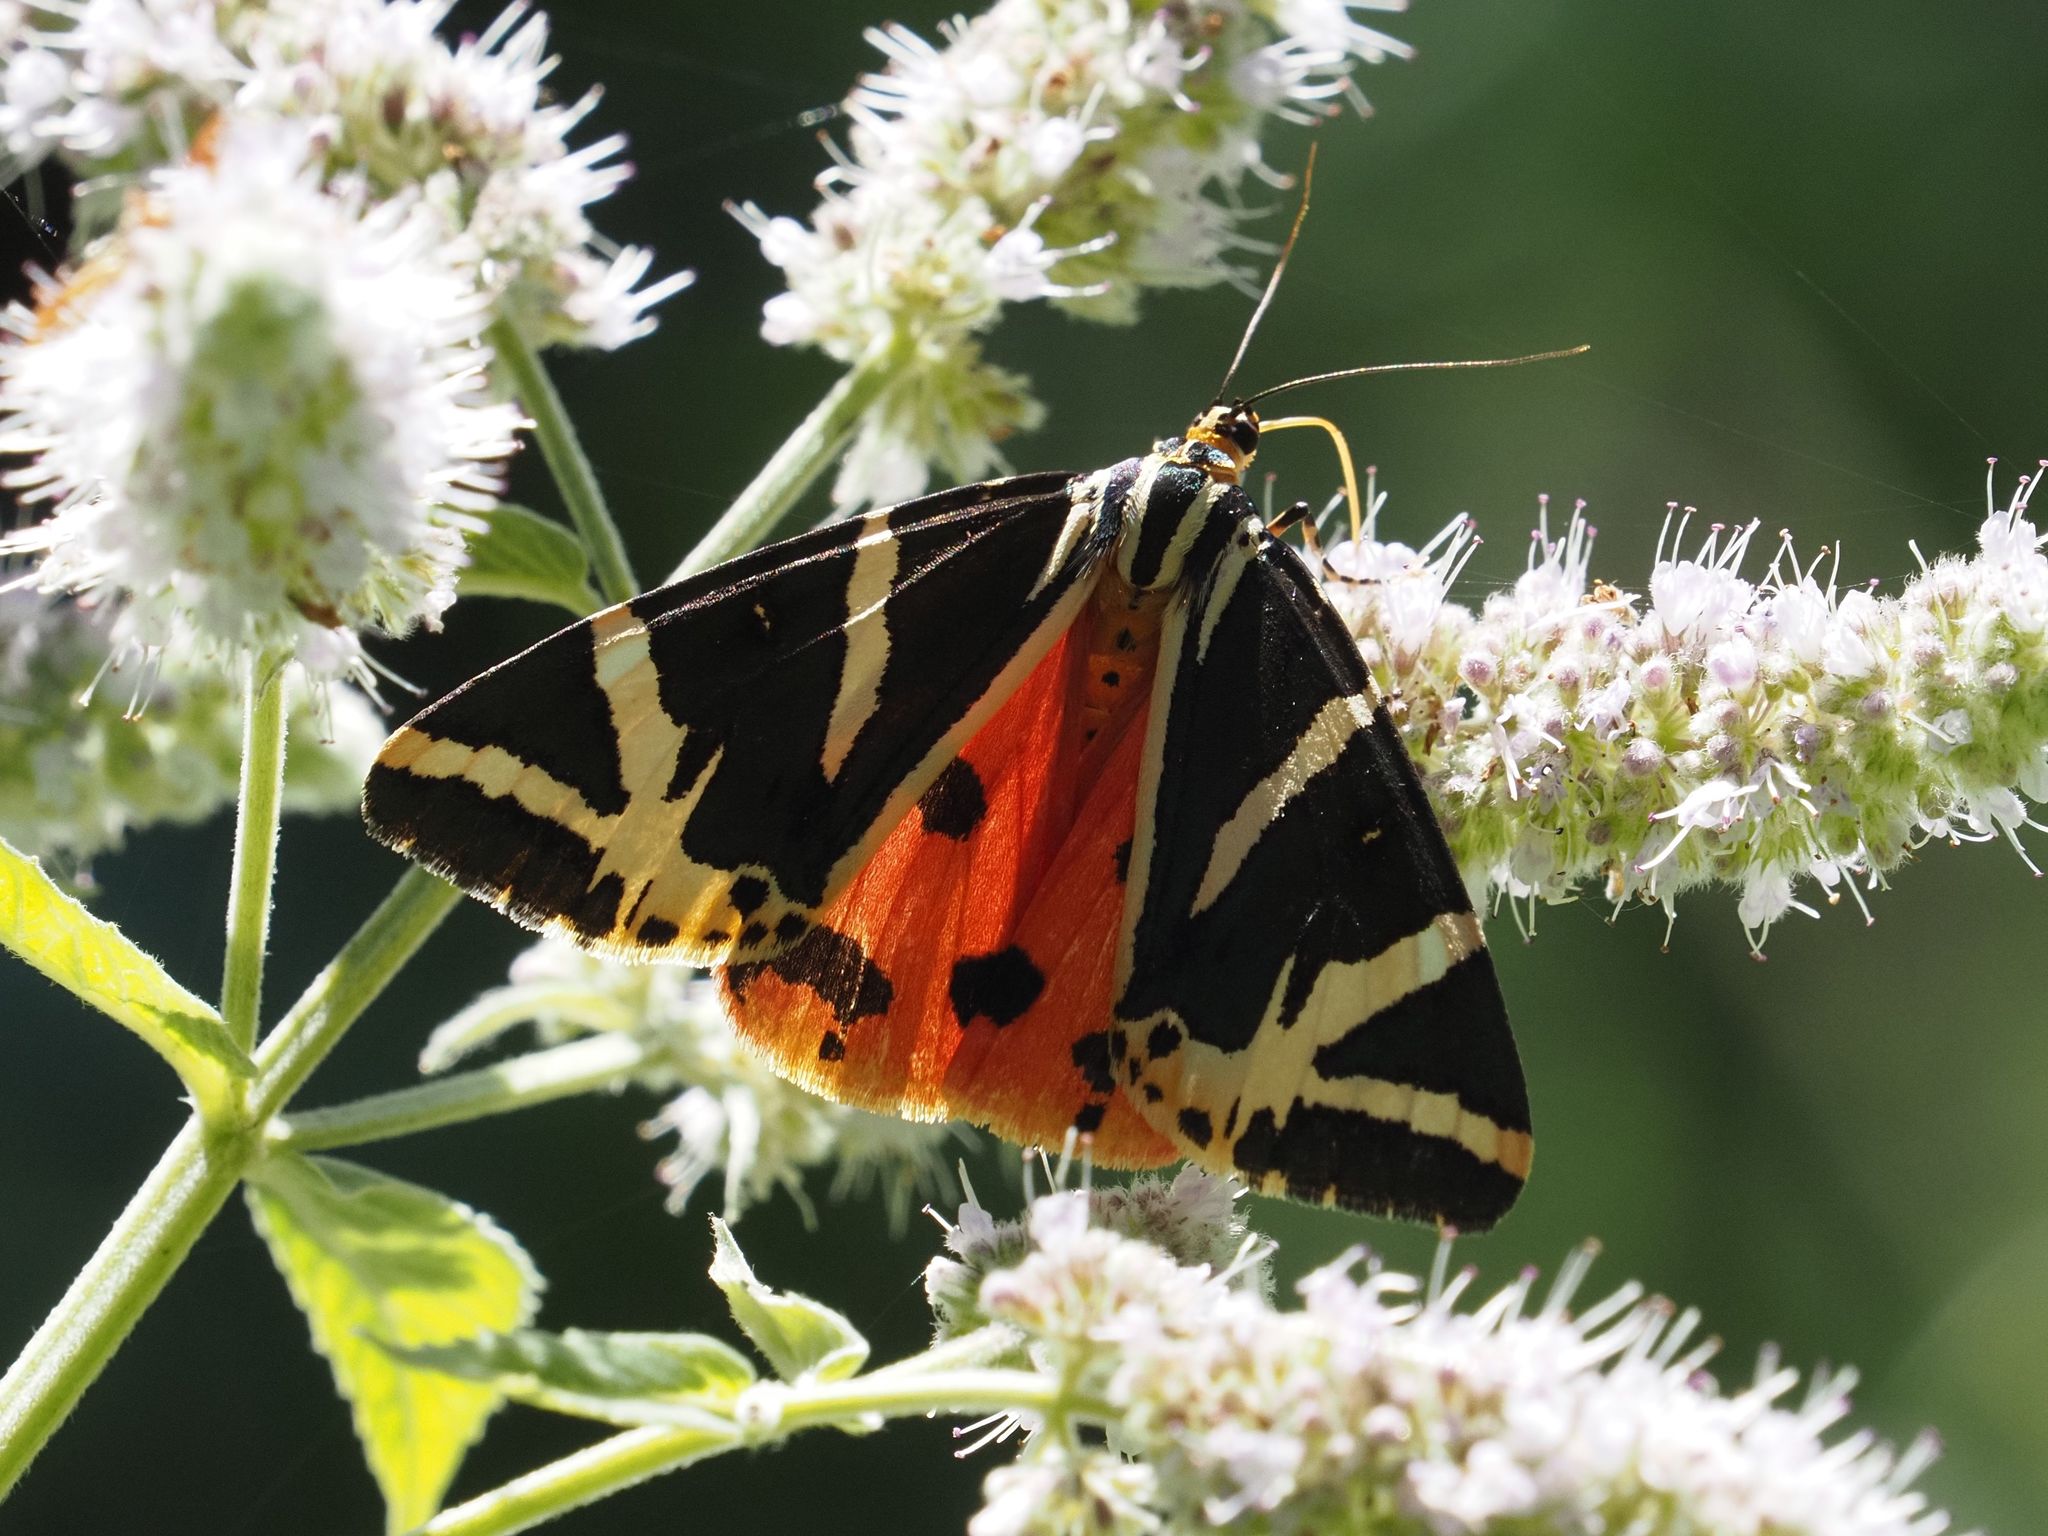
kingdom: Animalia
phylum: Arthropoda
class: Insecta
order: Lepidoptera
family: Erebidae
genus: Euplagia
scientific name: Euplagia quadripunctaria
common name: Jersey tiger
